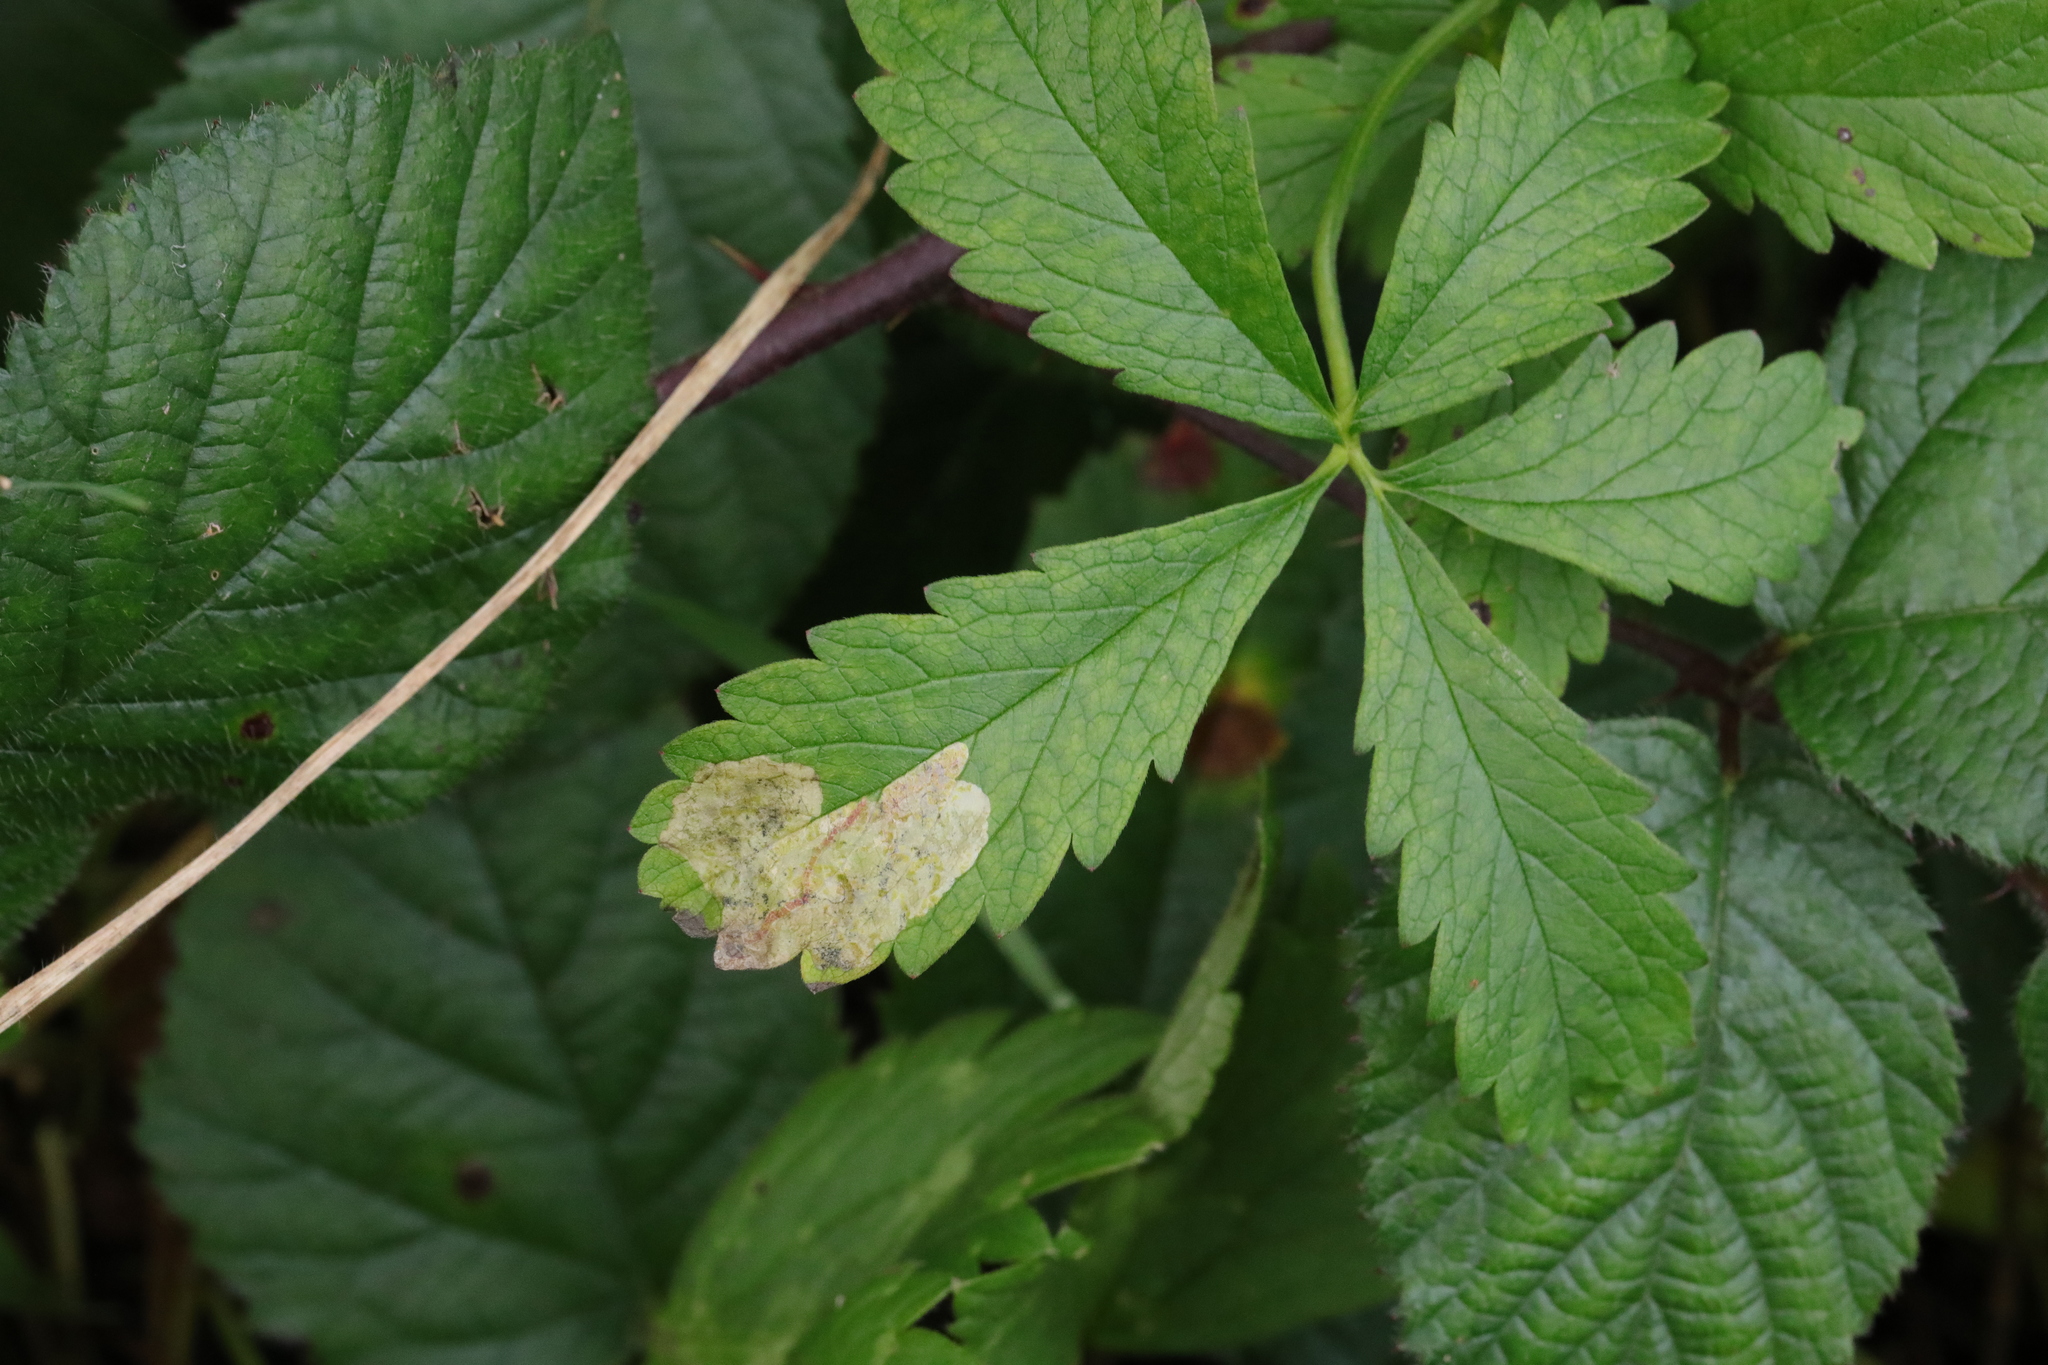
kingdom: Animalia
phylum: Arthropoda
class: Insecta
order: Hymenoptera
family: Tenthredinidae
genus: Fenella
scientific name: Fenella nigrita
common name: Tenthredid wasp
